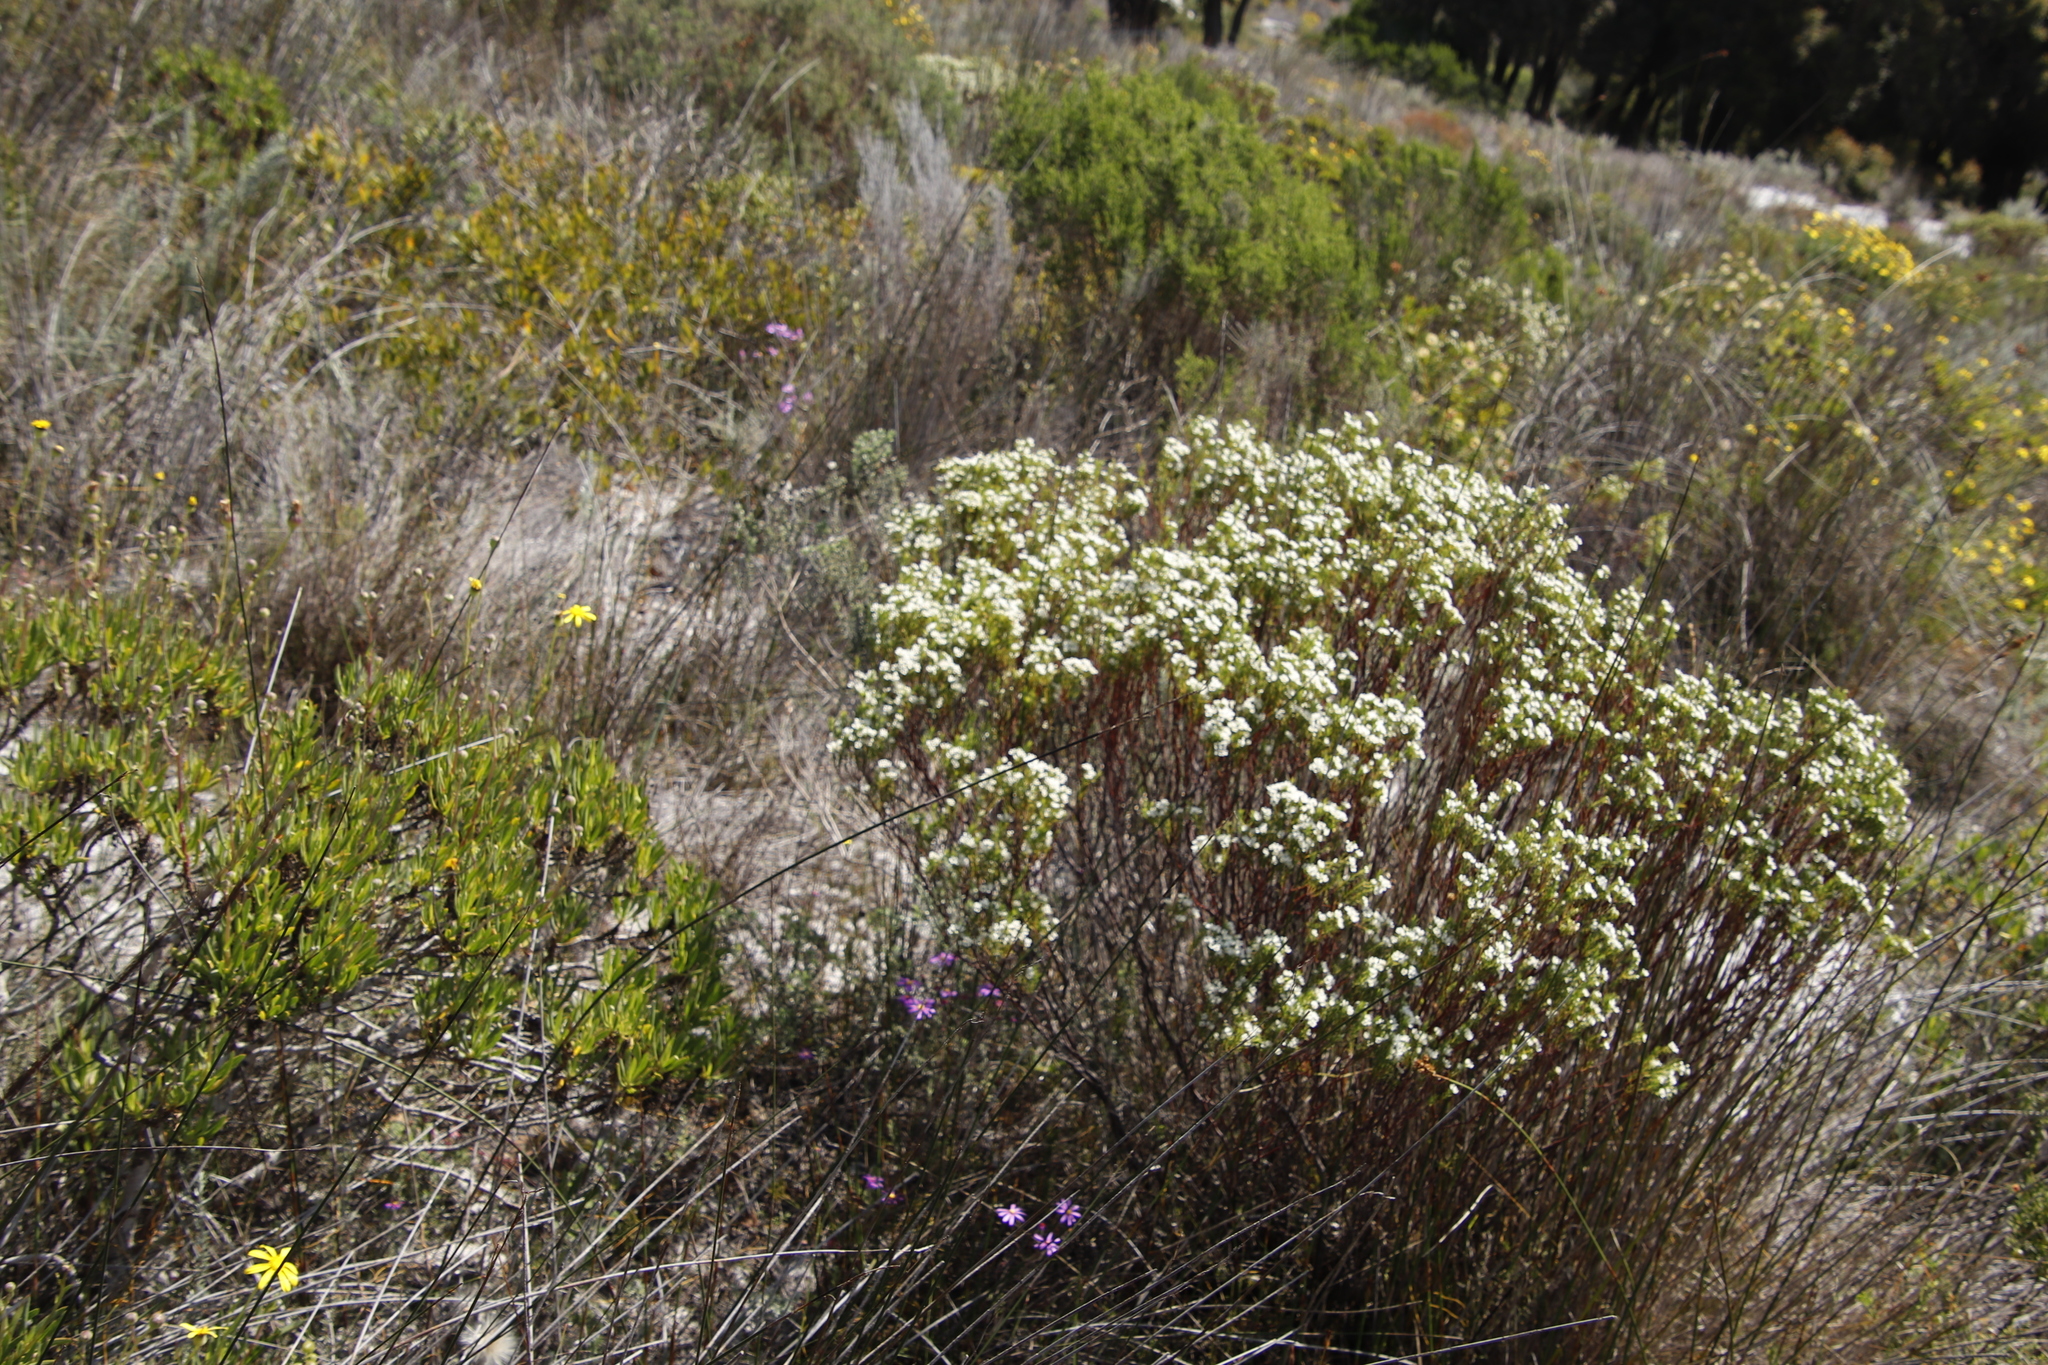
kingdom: Plantae
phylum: Tracheophyta
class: Magnoliopsida
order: Sapindales
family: Rutaceae
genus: Diosma
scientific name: Diosma hirsuta
